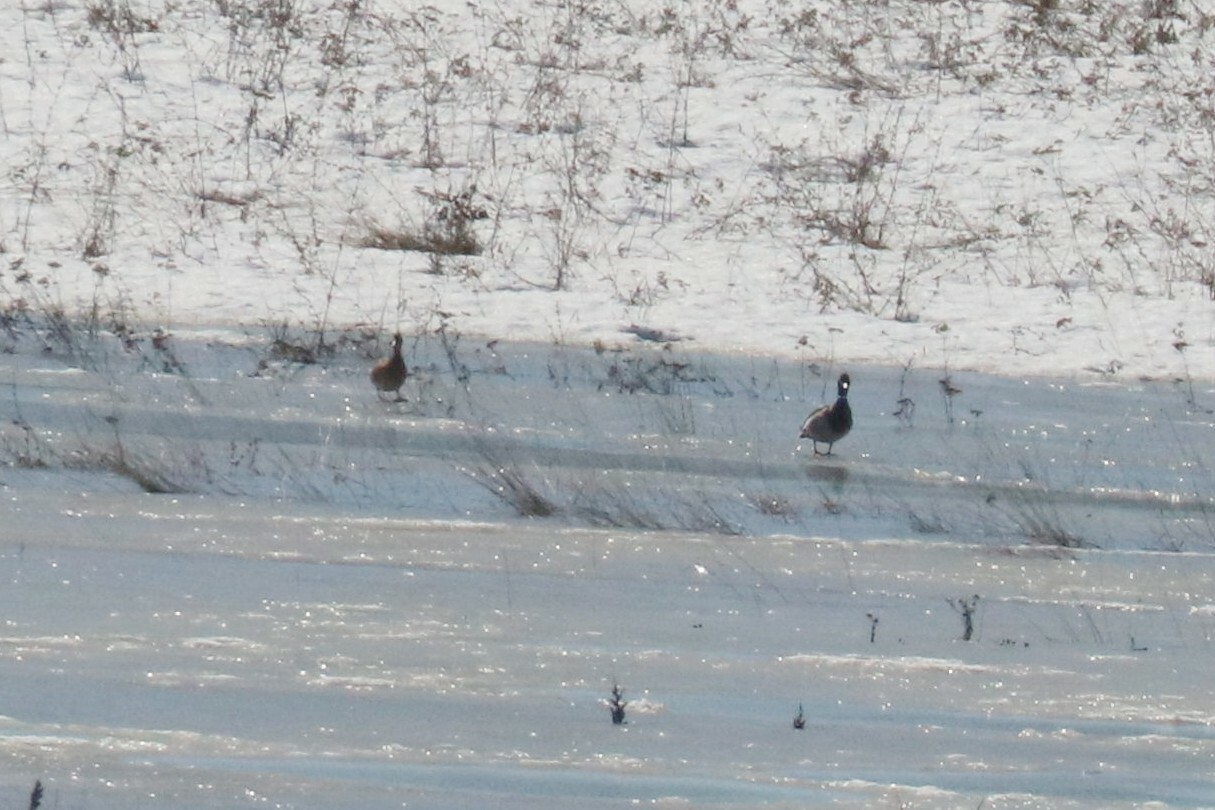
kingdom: Animalia
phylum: Chordata
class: Aves
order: Anseriformes
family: Anatidae
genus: Anas
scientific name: Anas platyrhynchos
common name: Mallard
